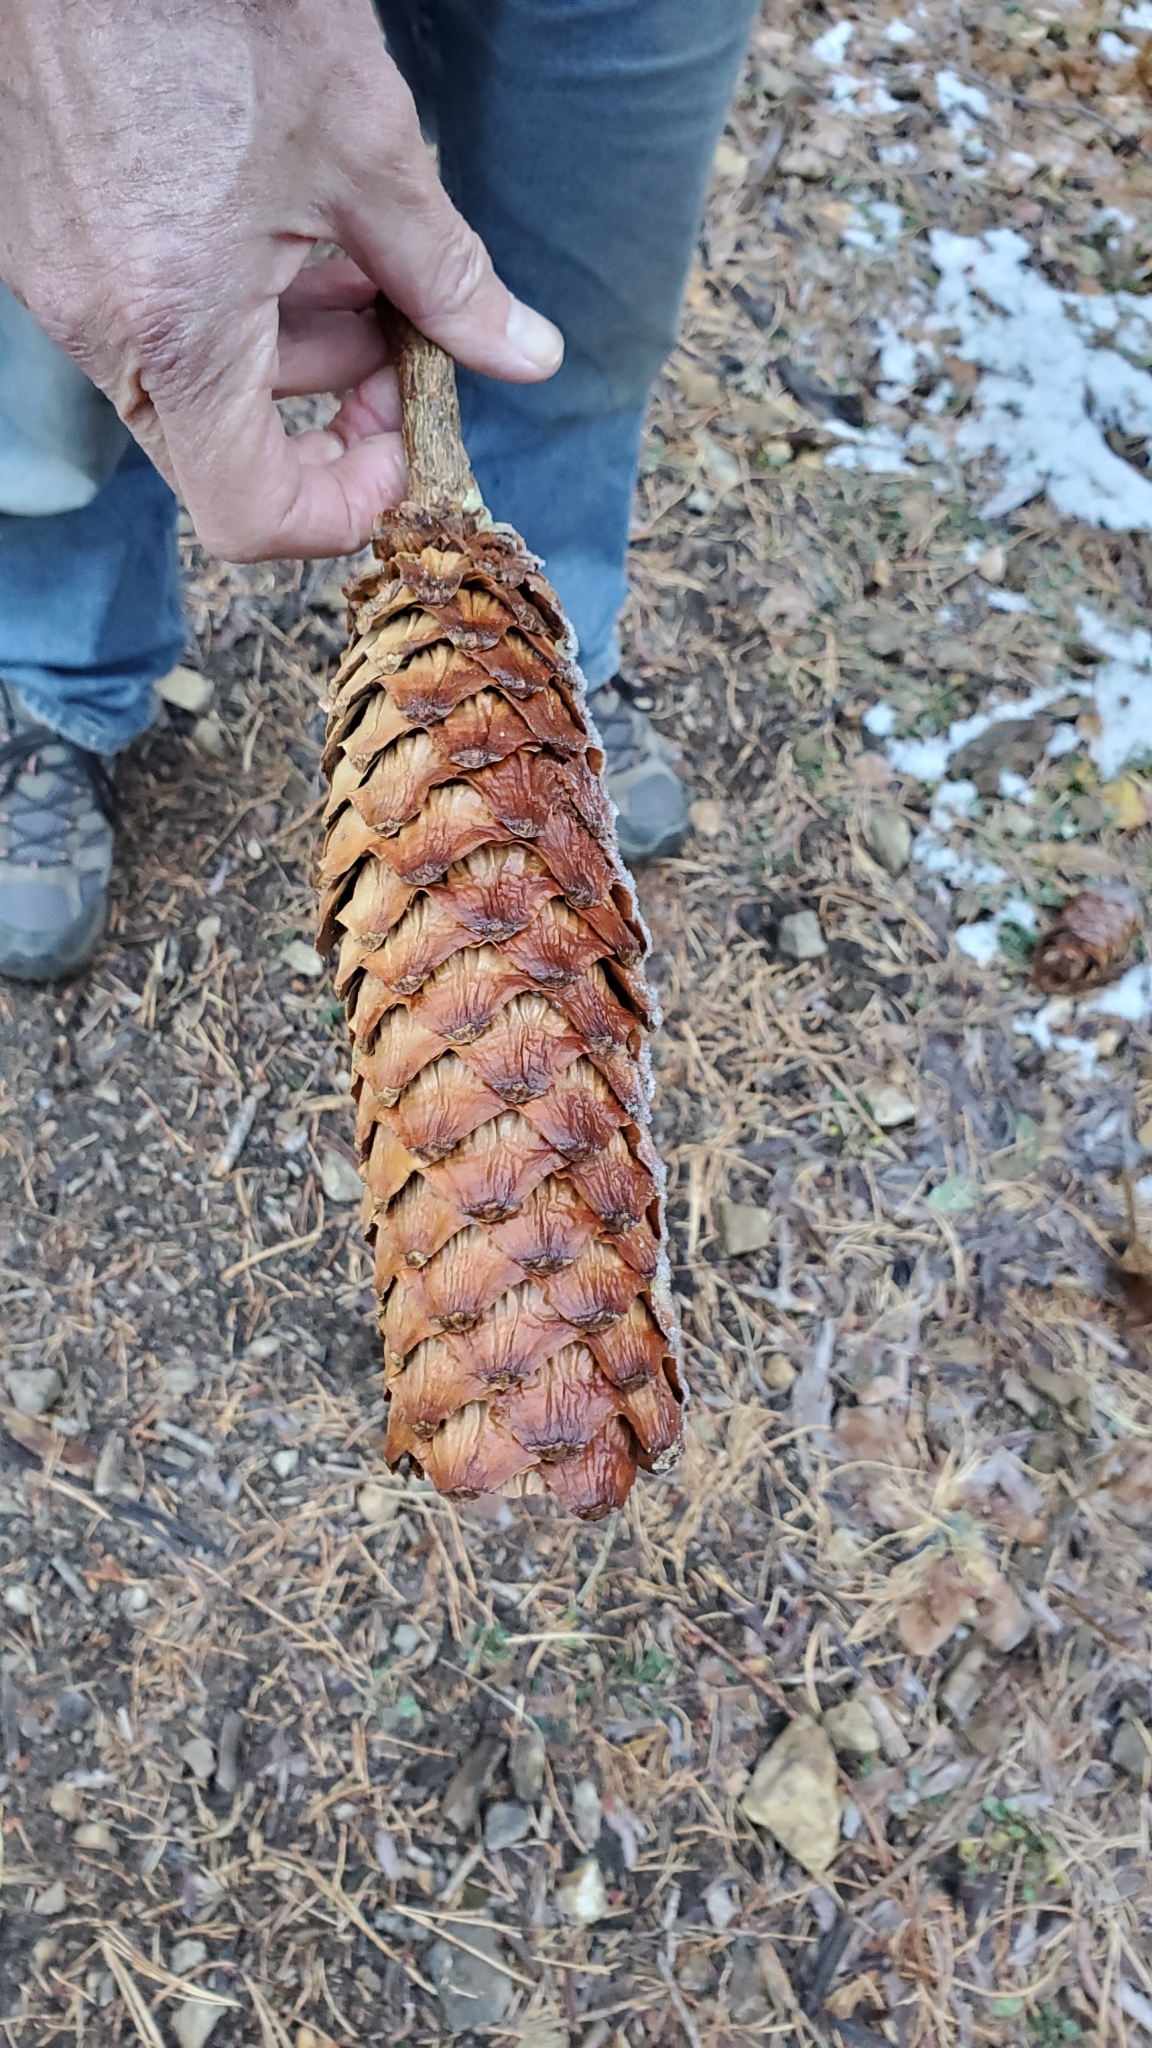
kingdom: Plantae
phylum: Tracheophyta
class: Pinopsida
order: Pinales
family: Pinaceae
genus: Pinus
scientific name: Pinus lambertiana
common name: Sugar pine
